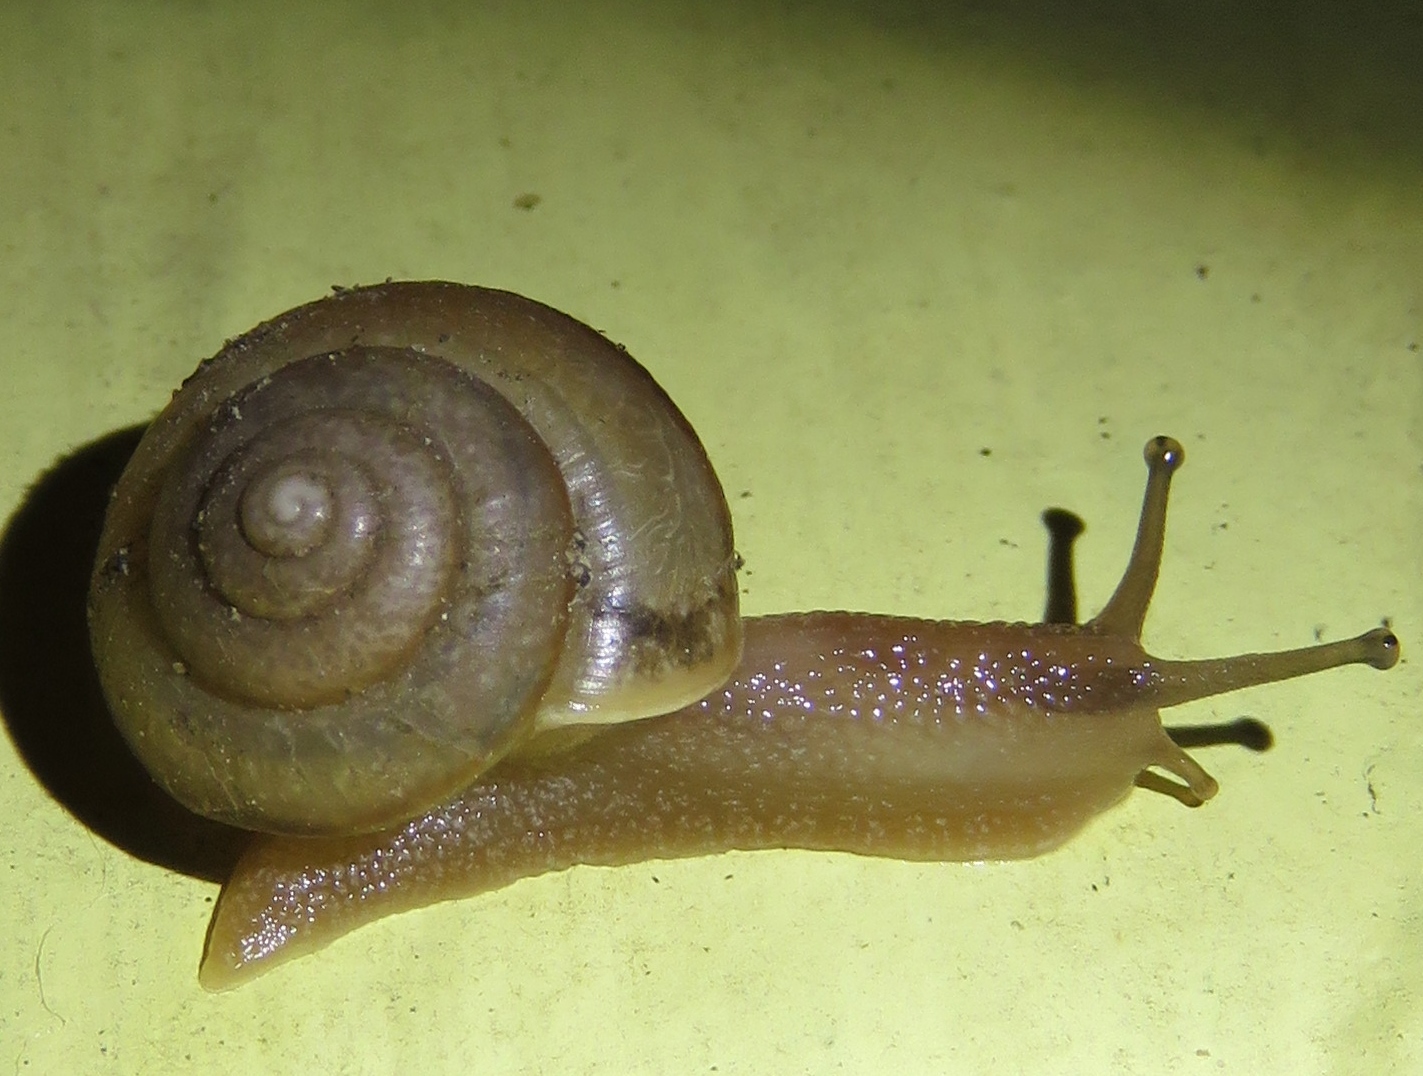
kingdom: Animalia
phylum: Mollusca
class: Gastropoda
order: Stylommatophora
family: Camaenidae
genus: Bradybaena
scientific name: Bradybaena similaris
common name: Asian trampsnail
